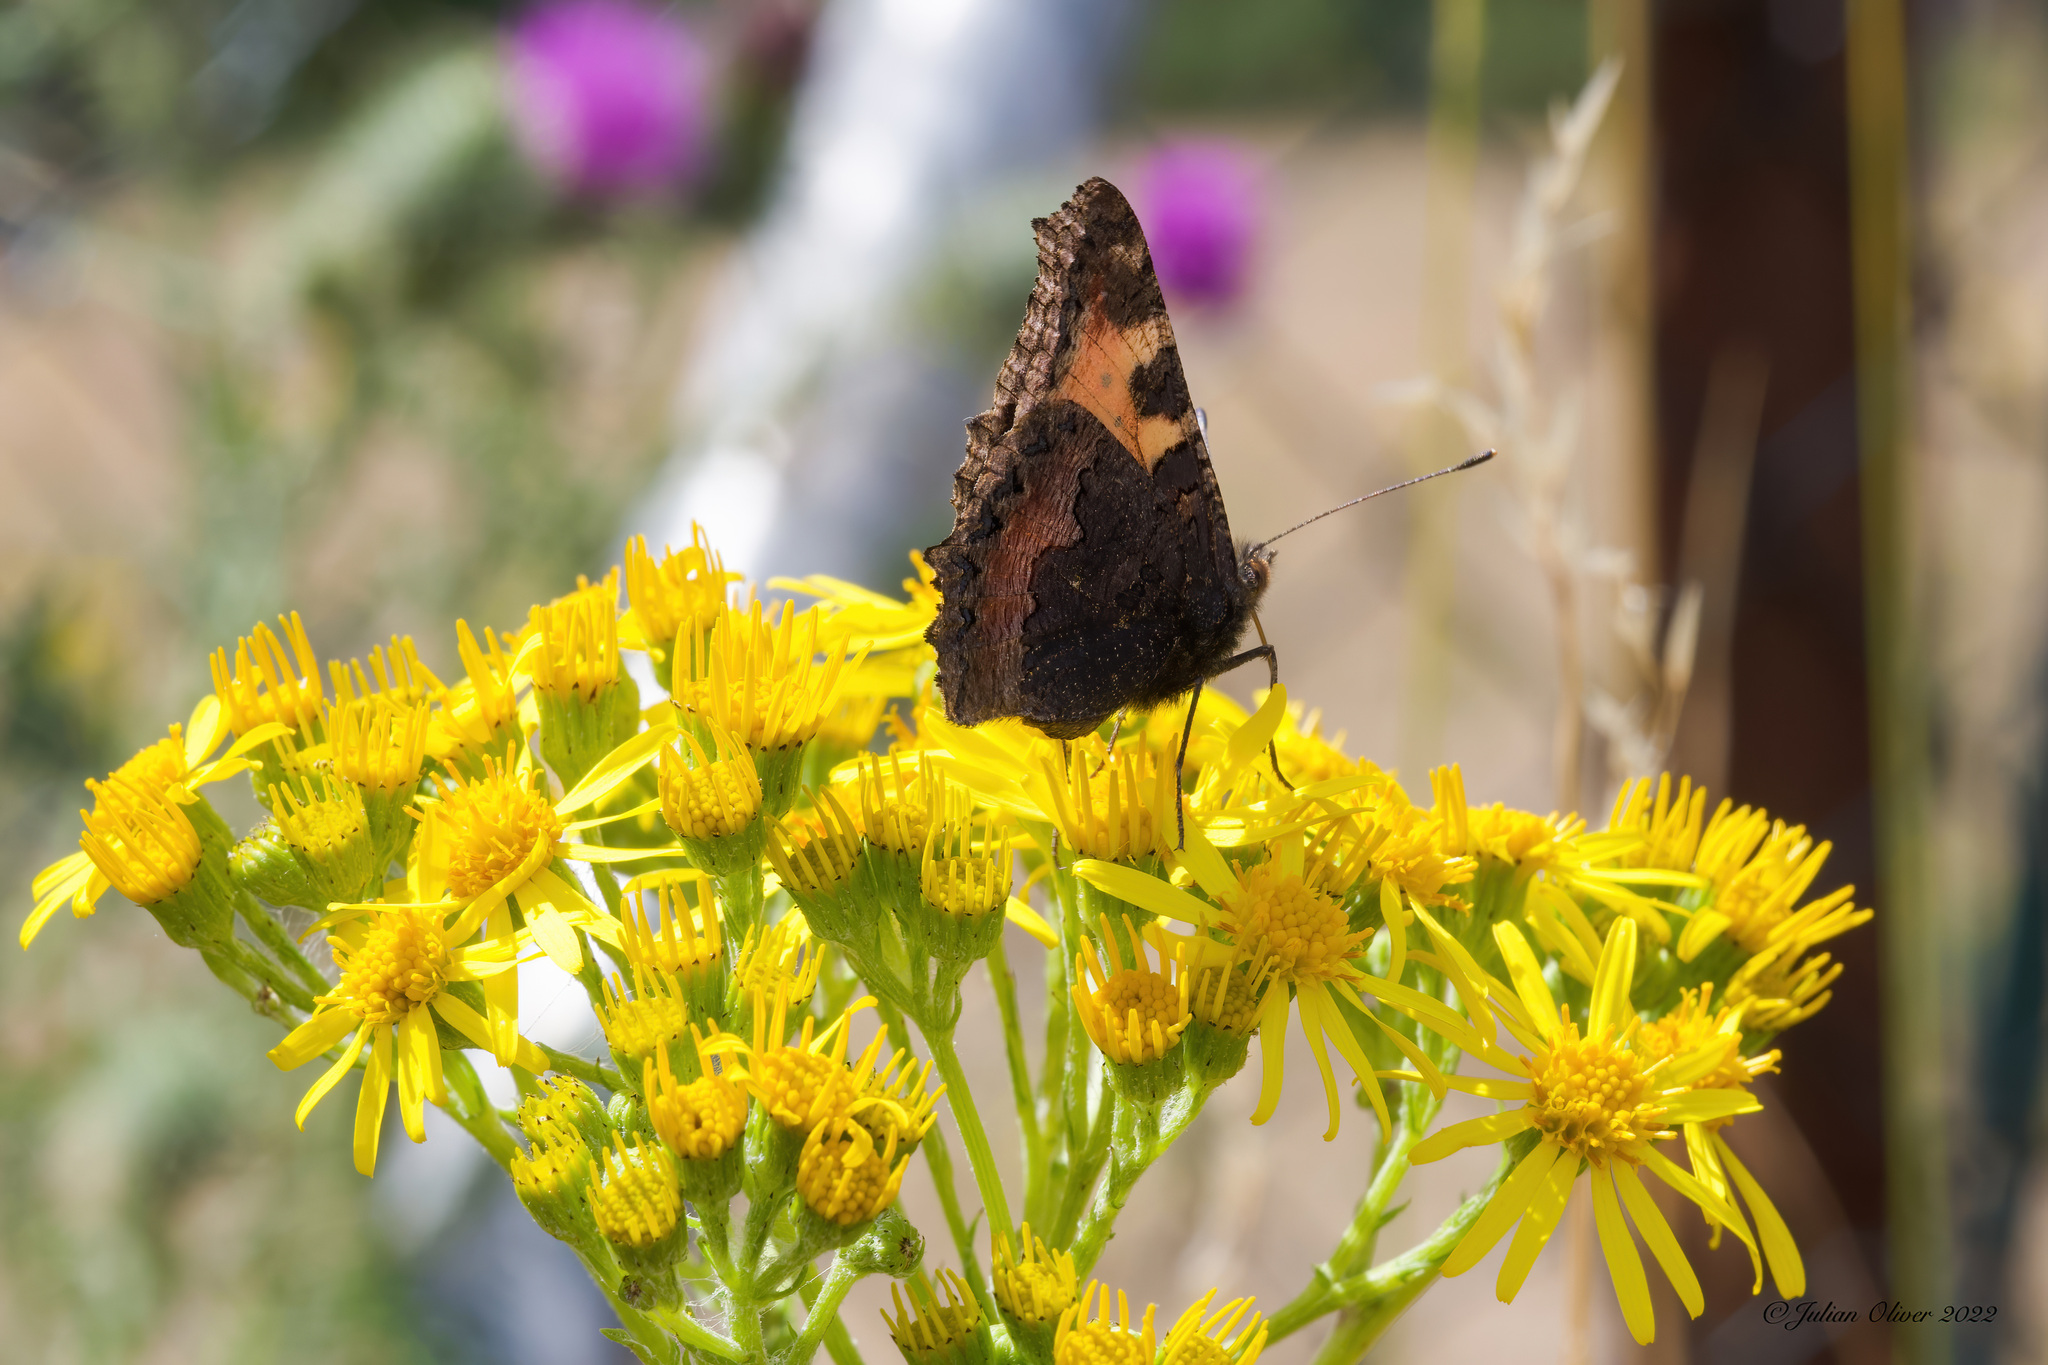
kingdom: Animalia
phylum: Arthropoda
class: Insecta
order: Lepidoptera
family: Nymphalidae
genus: Aglais
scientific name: Aglais urticae
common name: Small tortoiseshell
